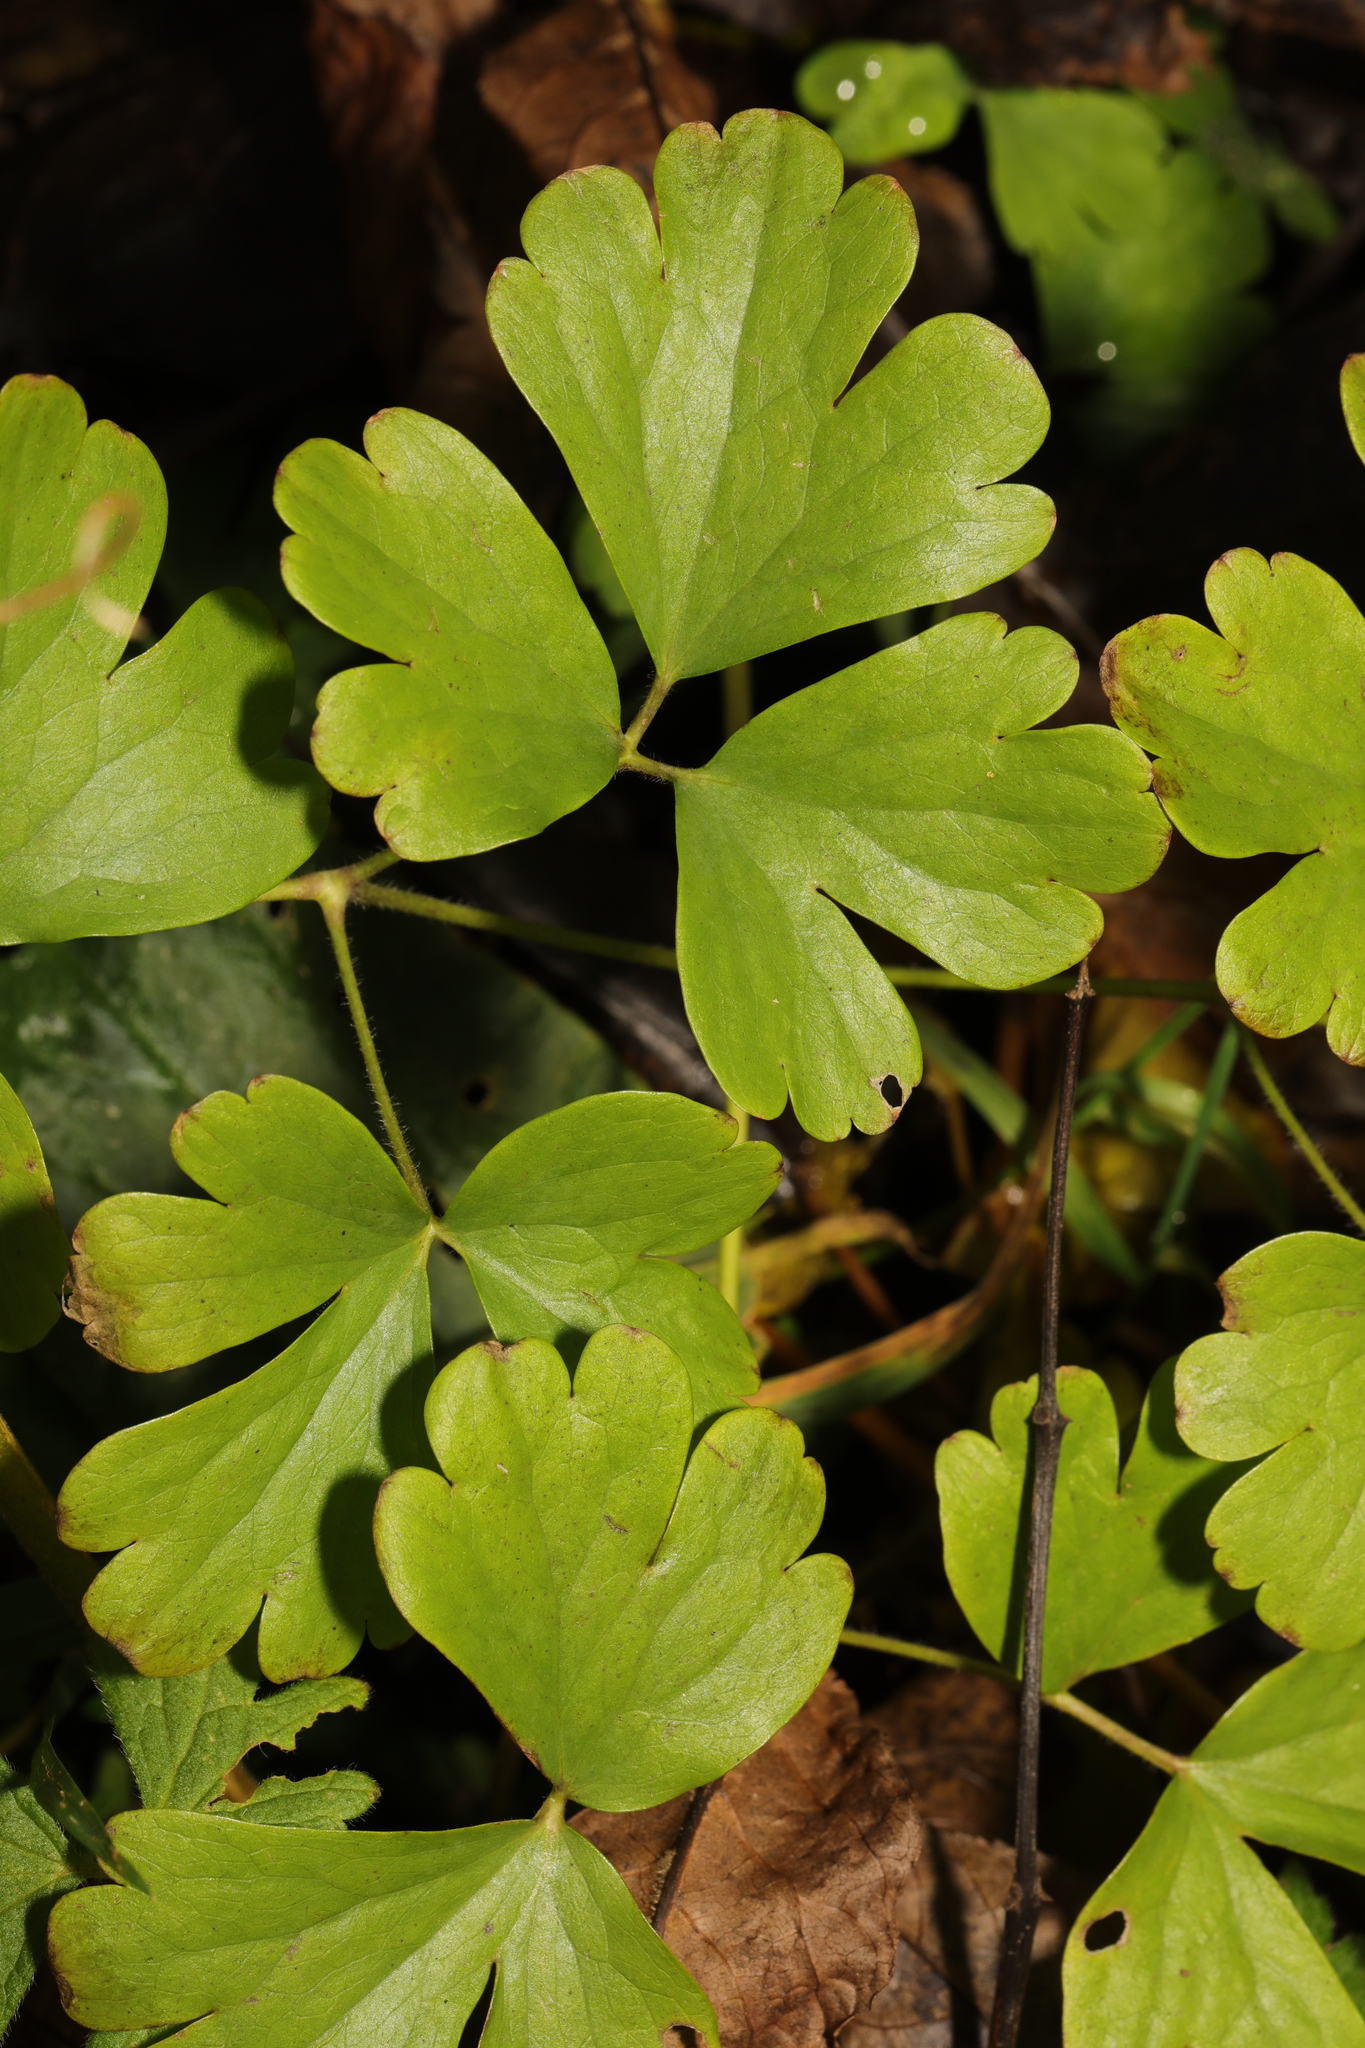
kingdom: Plantae
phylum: Tracheophyta
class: Magnoliopsida
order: Ranunculales
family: Ranunculaceae
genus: Aquilegia
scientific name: Aquilegia vulgaris
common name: Columbine
